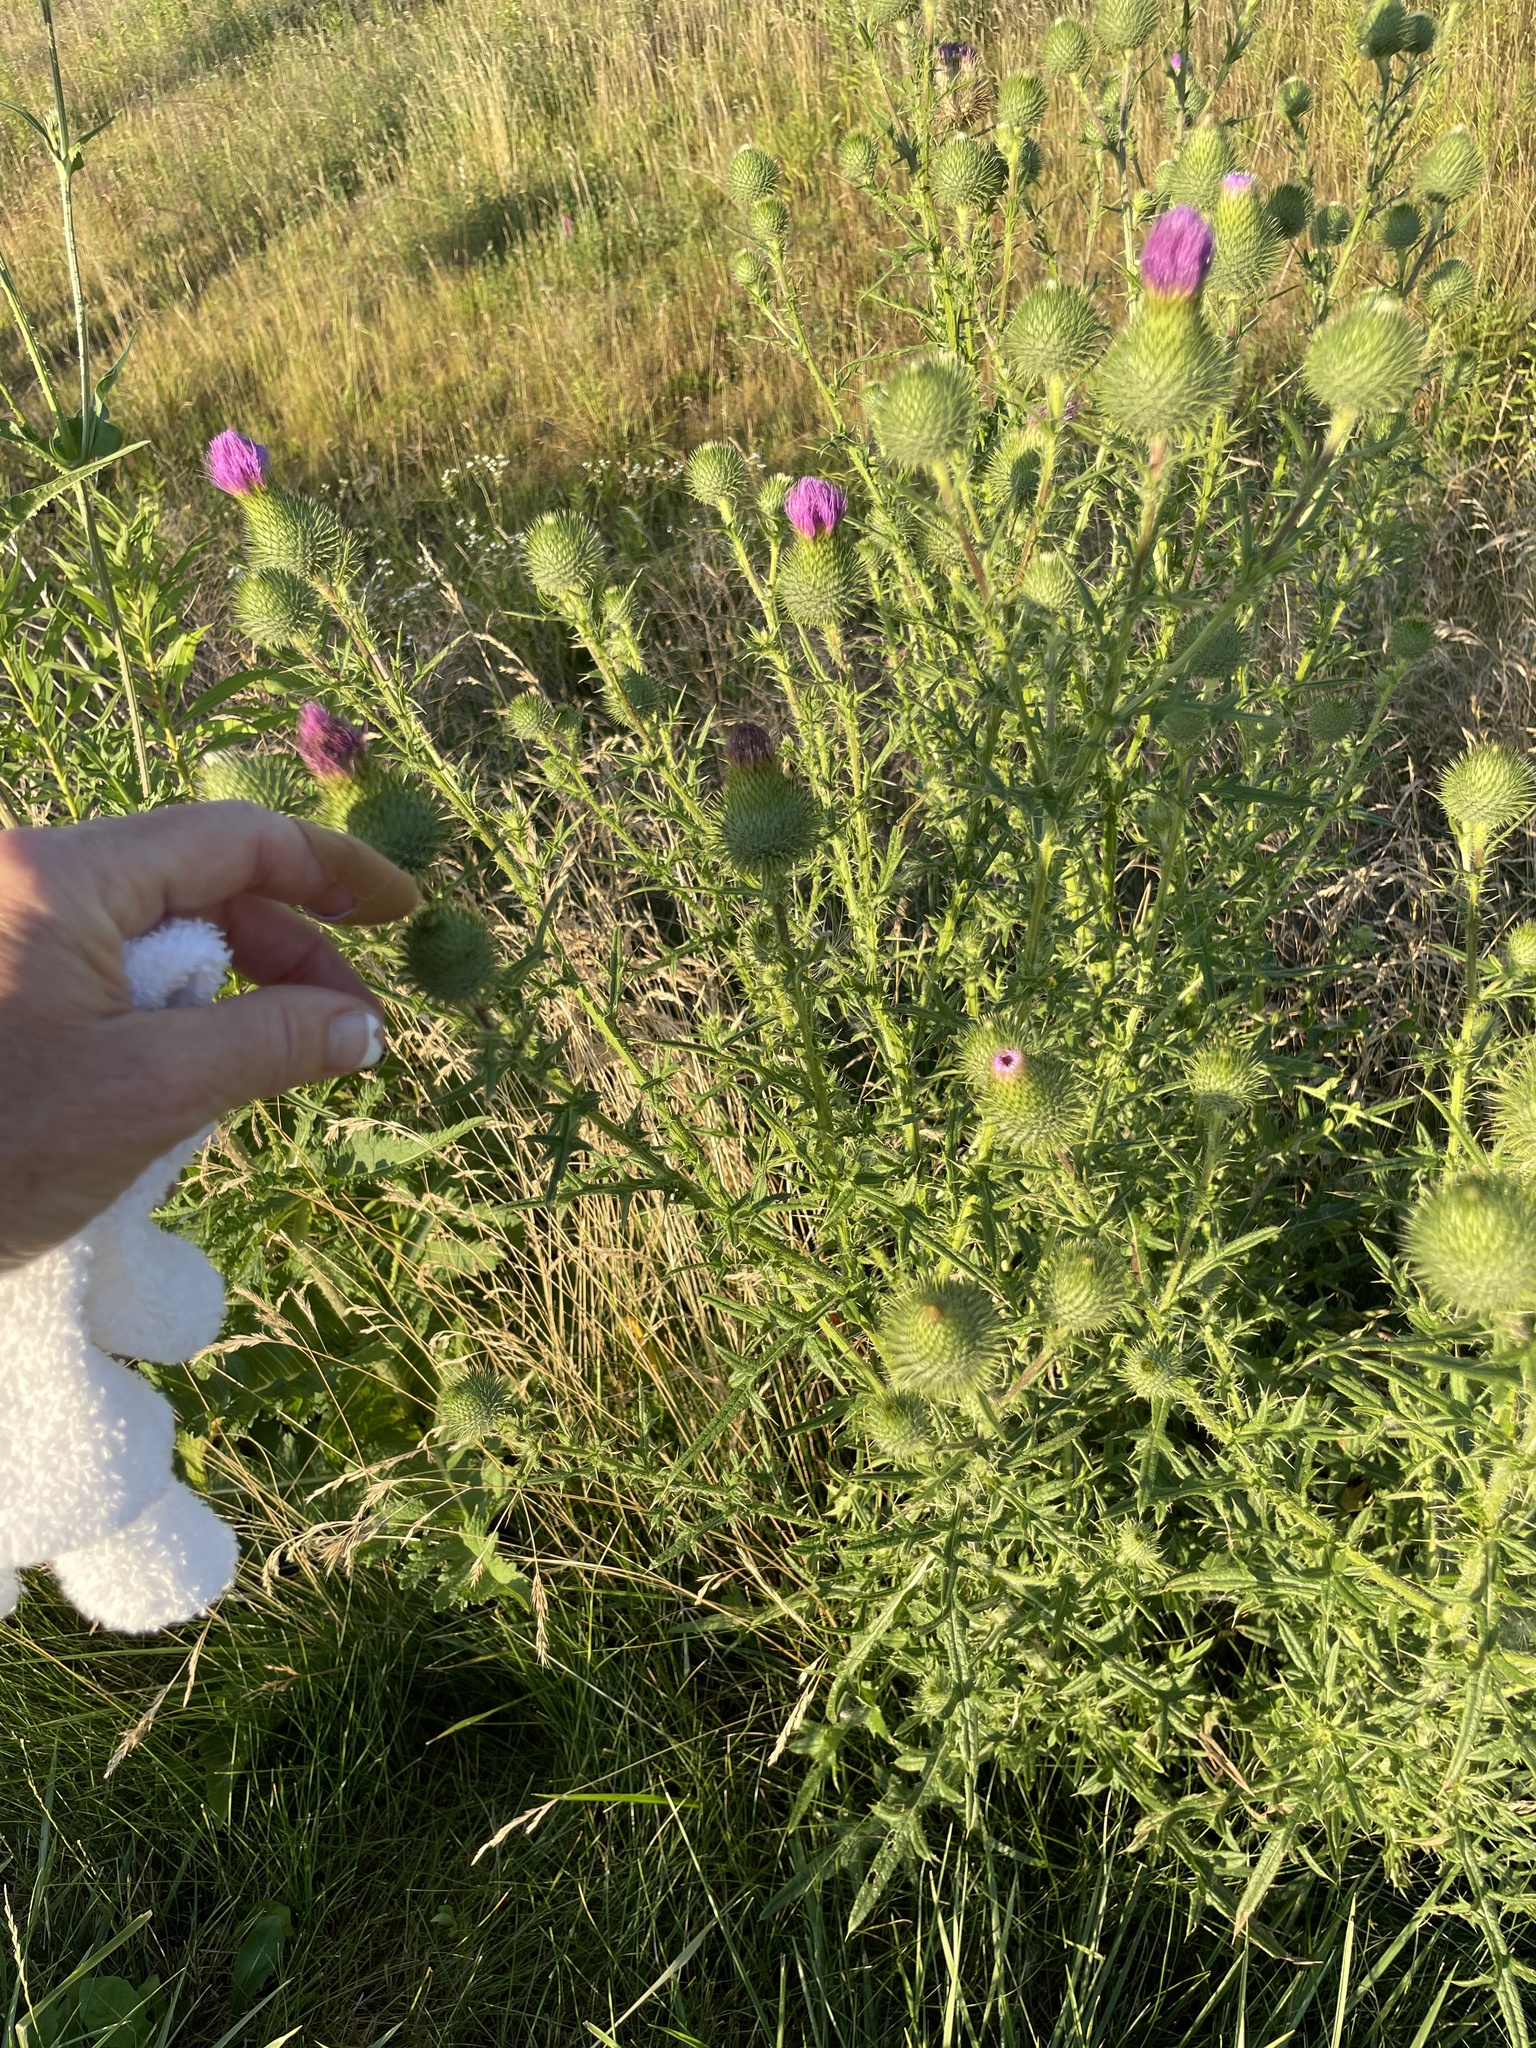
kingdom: Plantae
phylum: Tracheophyta
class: Magnoliopsida
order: Asterales
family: Asteraceae
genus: Cirsium
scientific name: Cirsium vulgare
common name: Bull thistle
